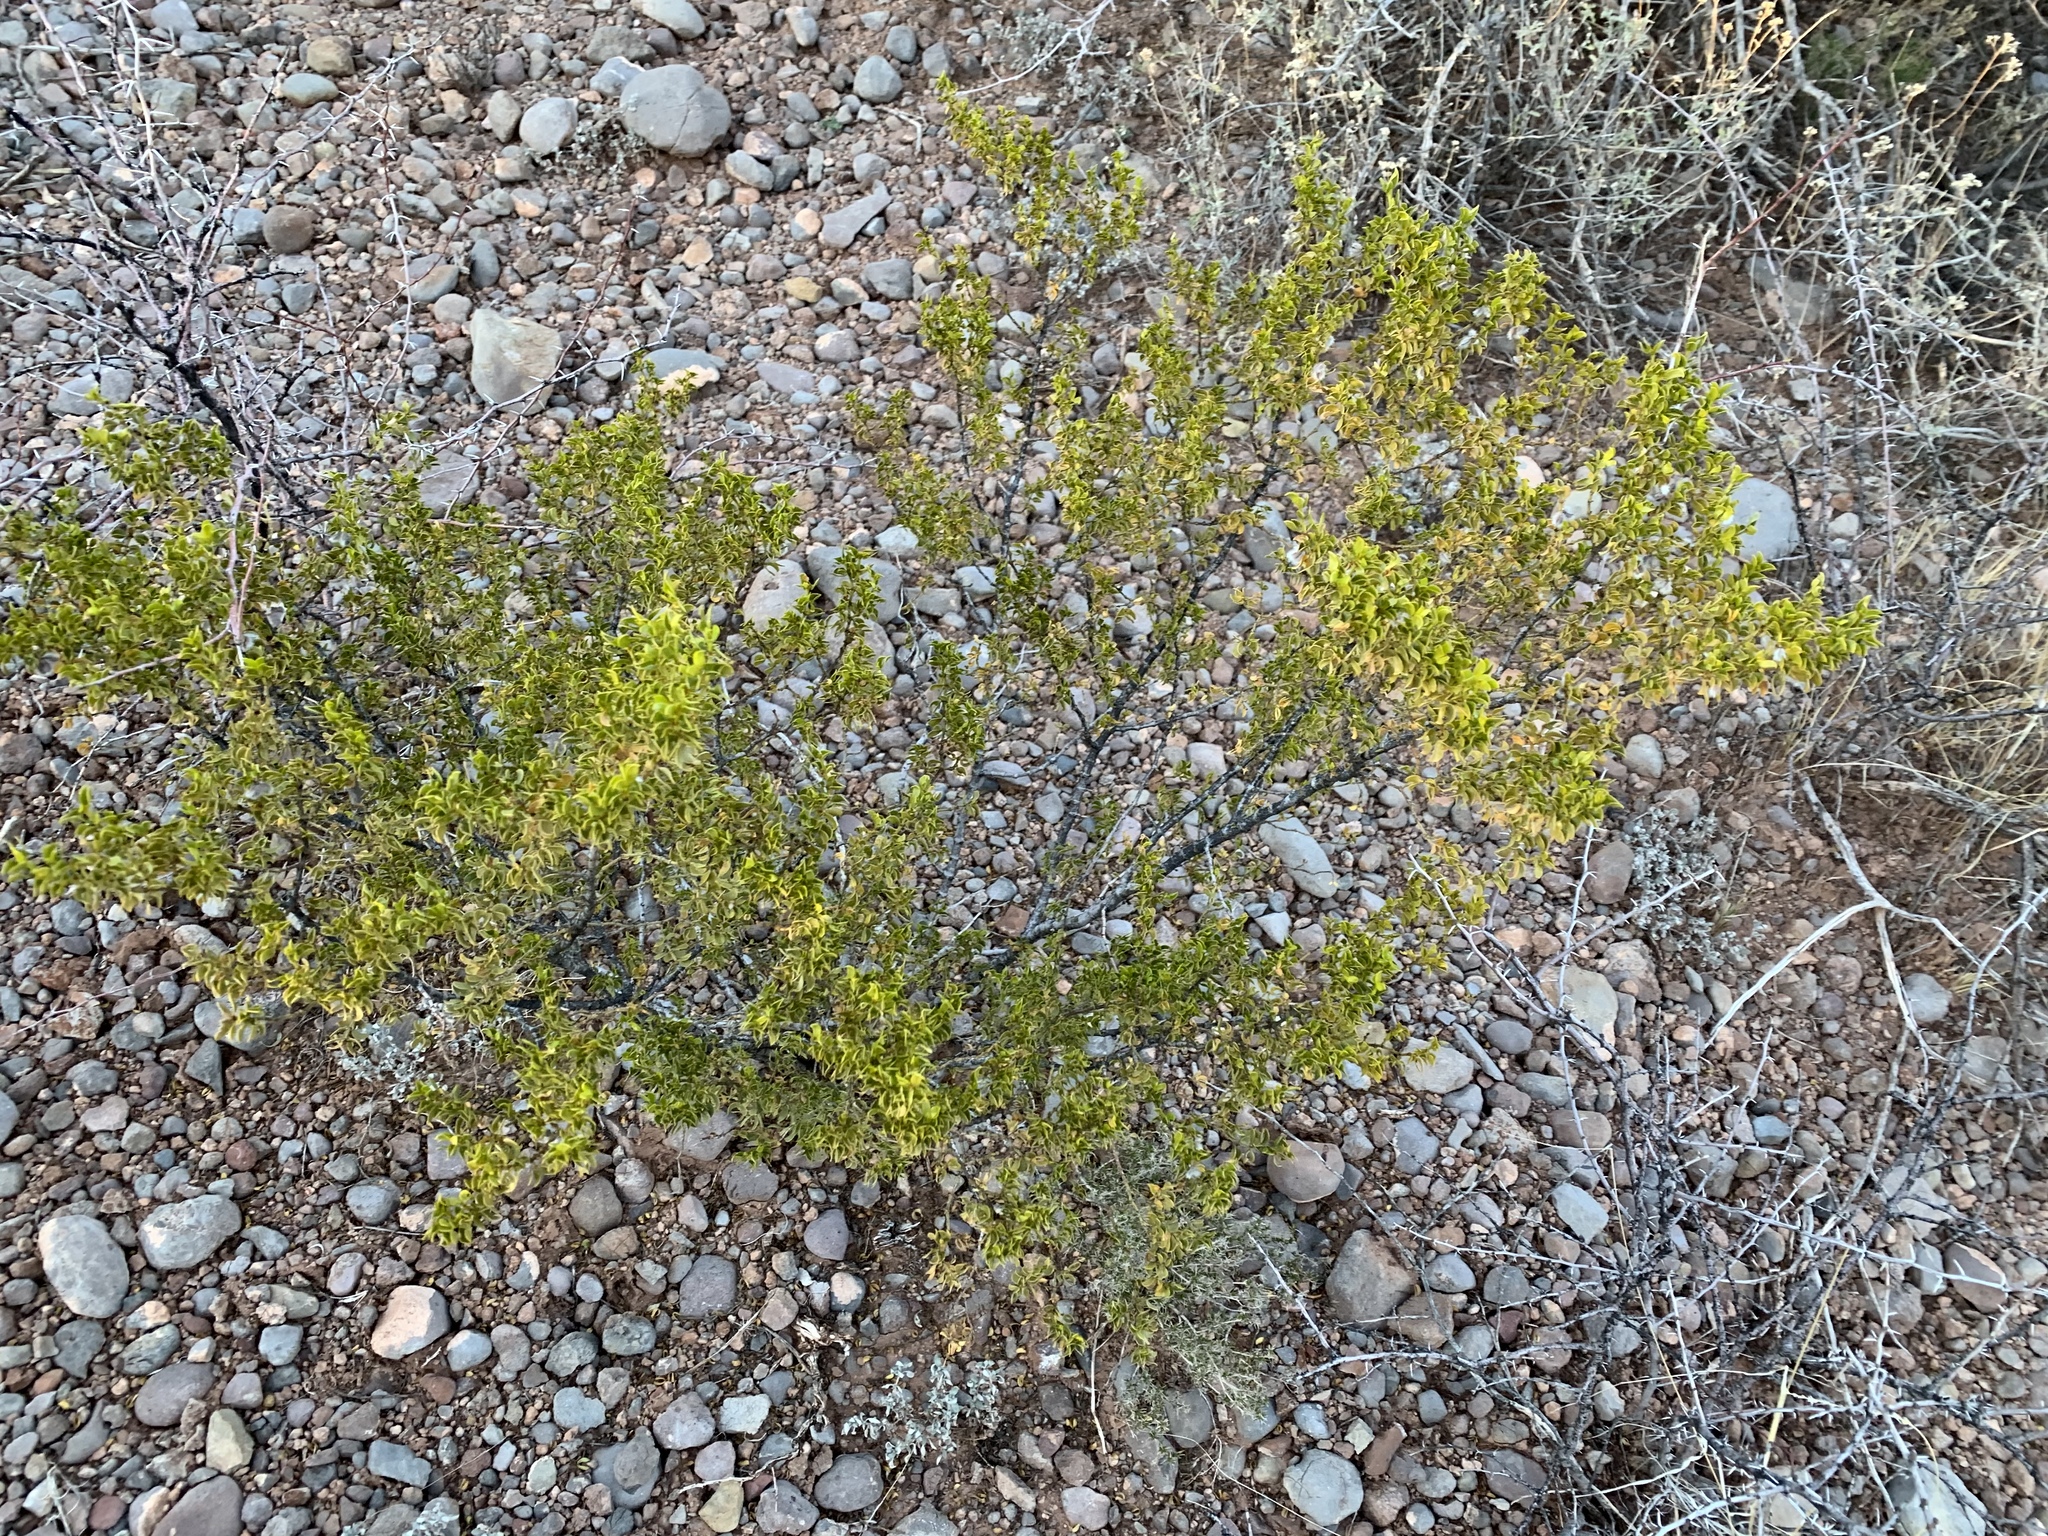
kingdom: Plantae
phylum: Tracheophyta
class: Magnoliopsida
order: Zygophyllales
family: Zygophyllaceae
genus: Larrea
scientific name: Larrea tridentata
